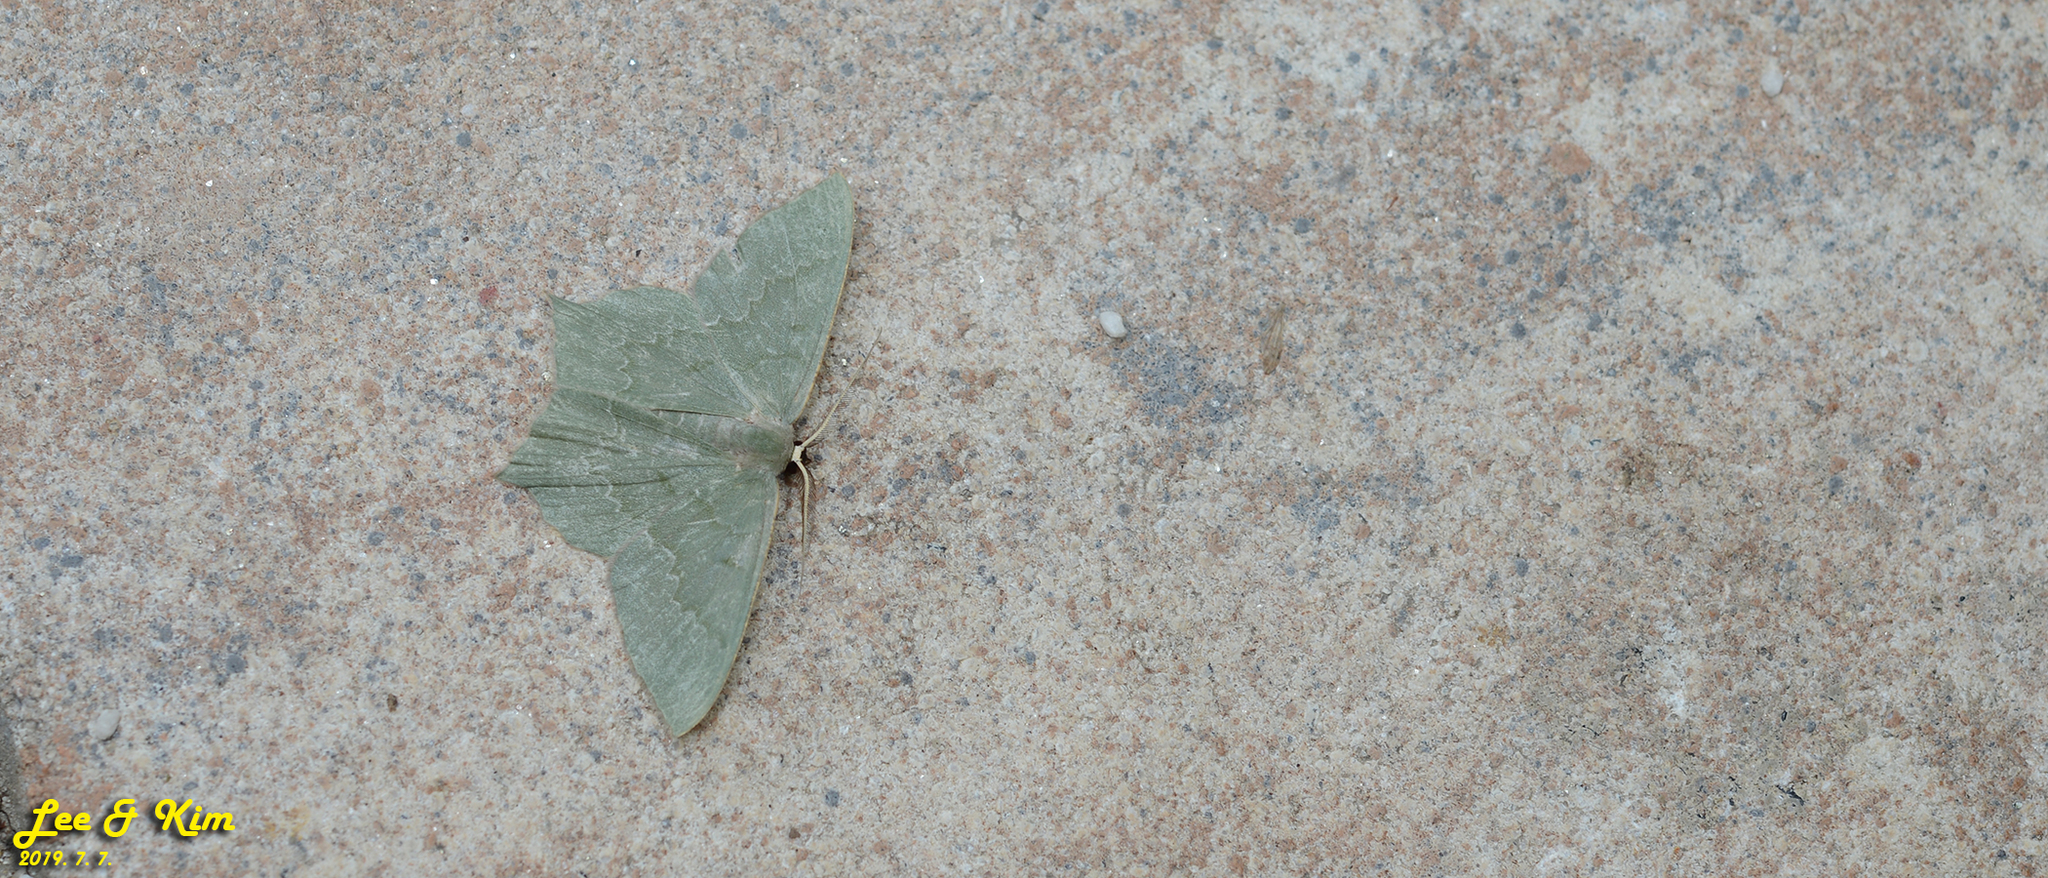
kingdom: Animalia
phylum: Arthropoda
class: Insecta
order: Lepidoptera
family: Geometridae
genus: Maxates
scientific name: Maxates grandificaria
